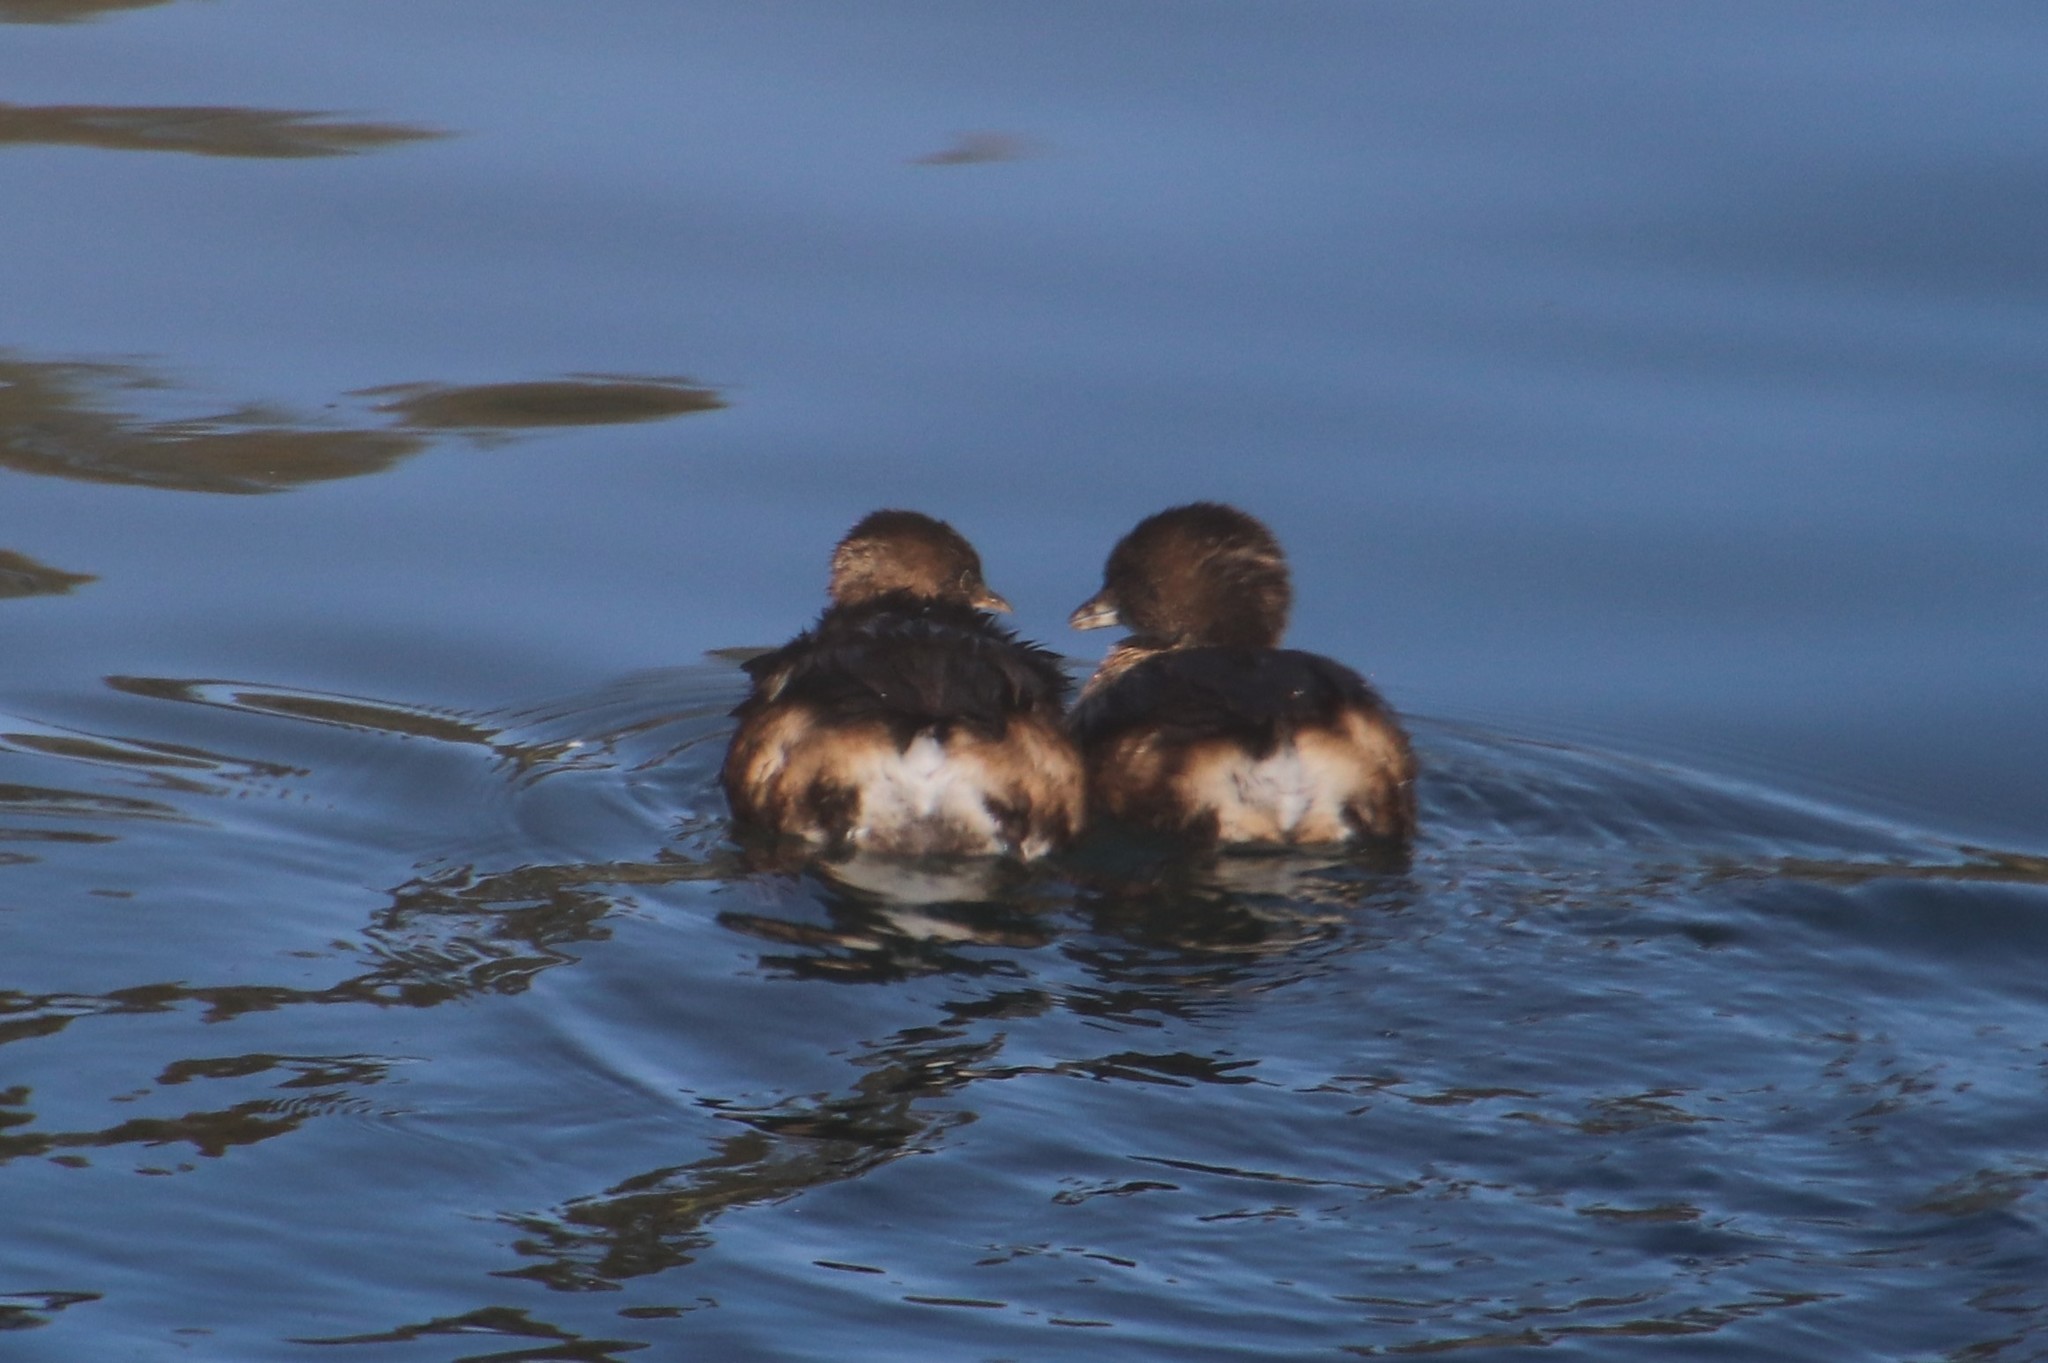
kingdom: Animalia
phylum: Chordata
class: Aves
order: Podicipediformes
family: Podicipedidae
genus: Podilymbus
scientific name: Podilymbus podiceps
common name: Pied-billed grebe
